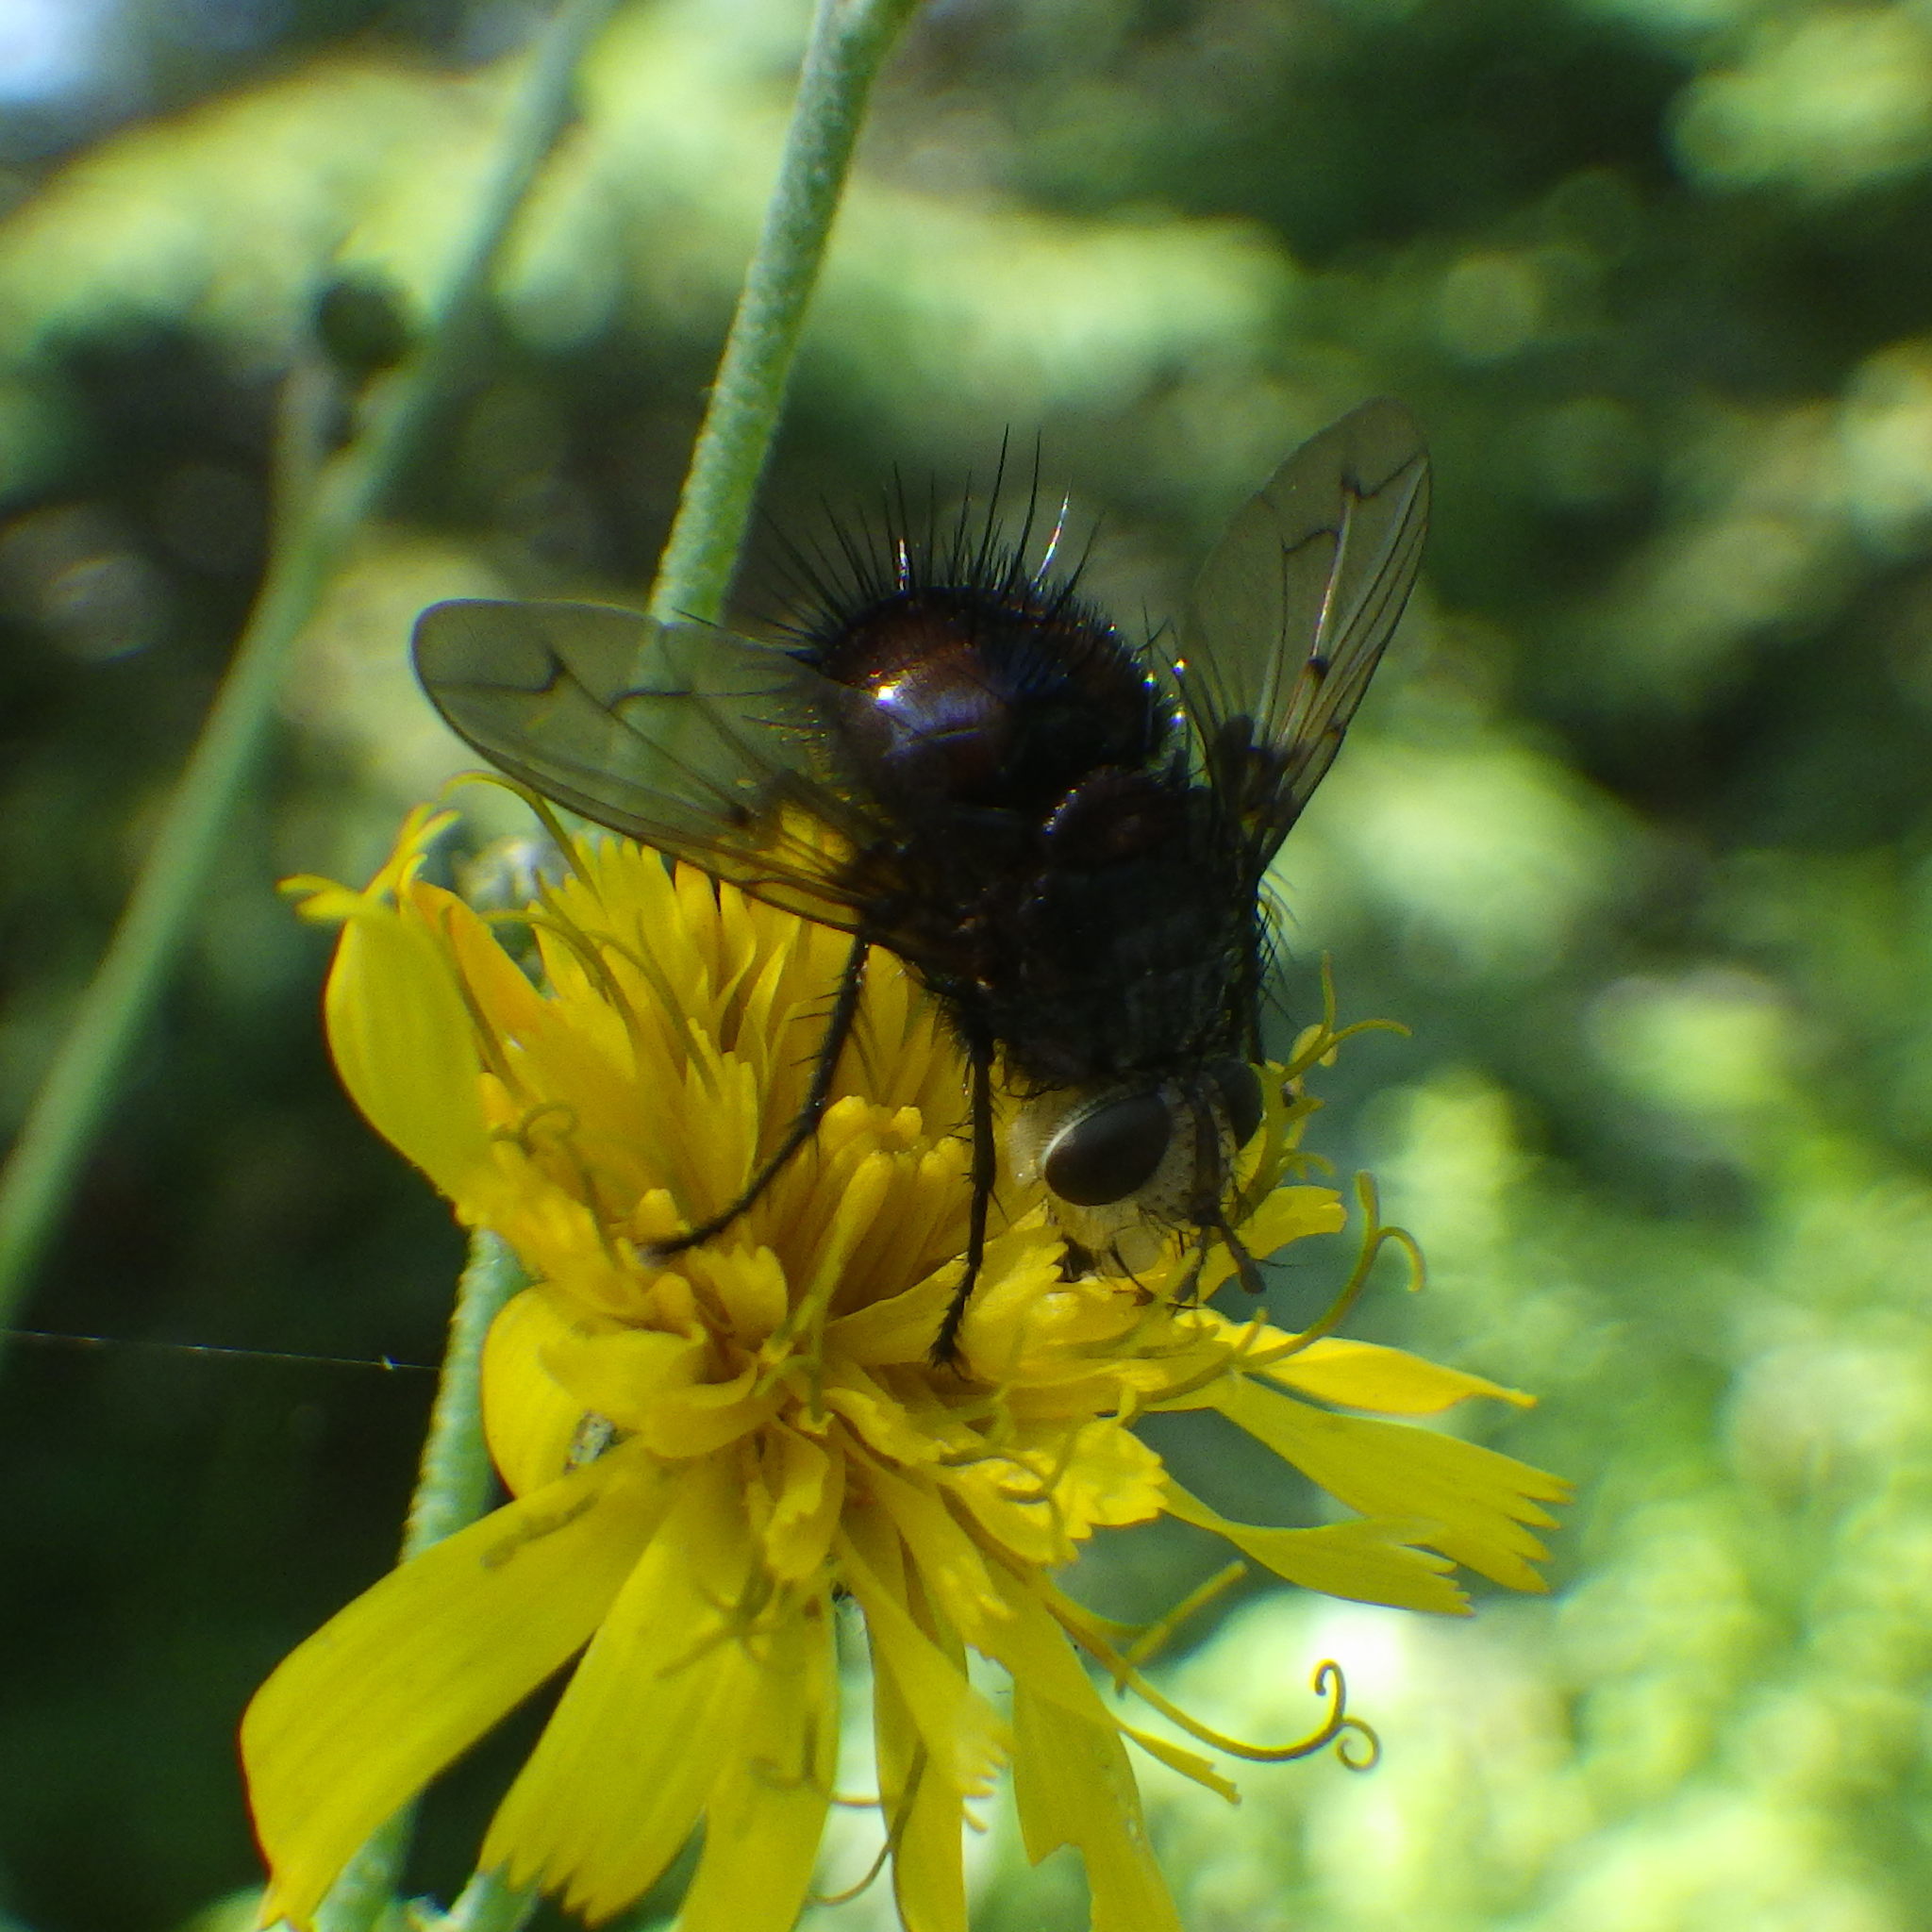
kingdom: Animalia
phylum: Arthropoda
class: Insecta
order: Diptera
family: Tachinidae
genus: Pararchytas
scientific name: Pararchytas decisus
